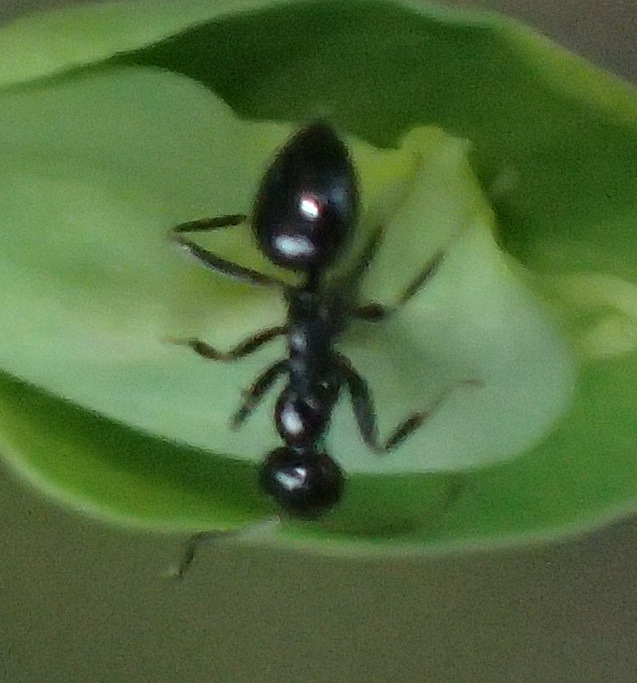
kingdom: Animalia
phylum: Arthropoda
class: Insecta
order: Hymenoptera
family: Formicidae
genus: Lepisiota
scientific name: Lepisiota capensis
